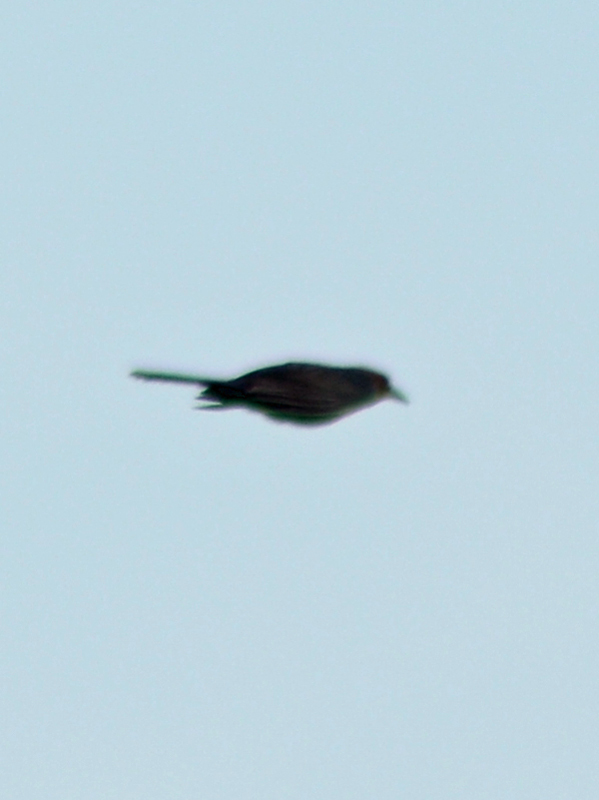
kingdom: Animalia
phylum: Chordata
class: Aves
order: Passeriformes
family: Icteridae
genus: Quiscalus
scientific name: Quiscalus mexicanus
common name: Great-tailed grackle
